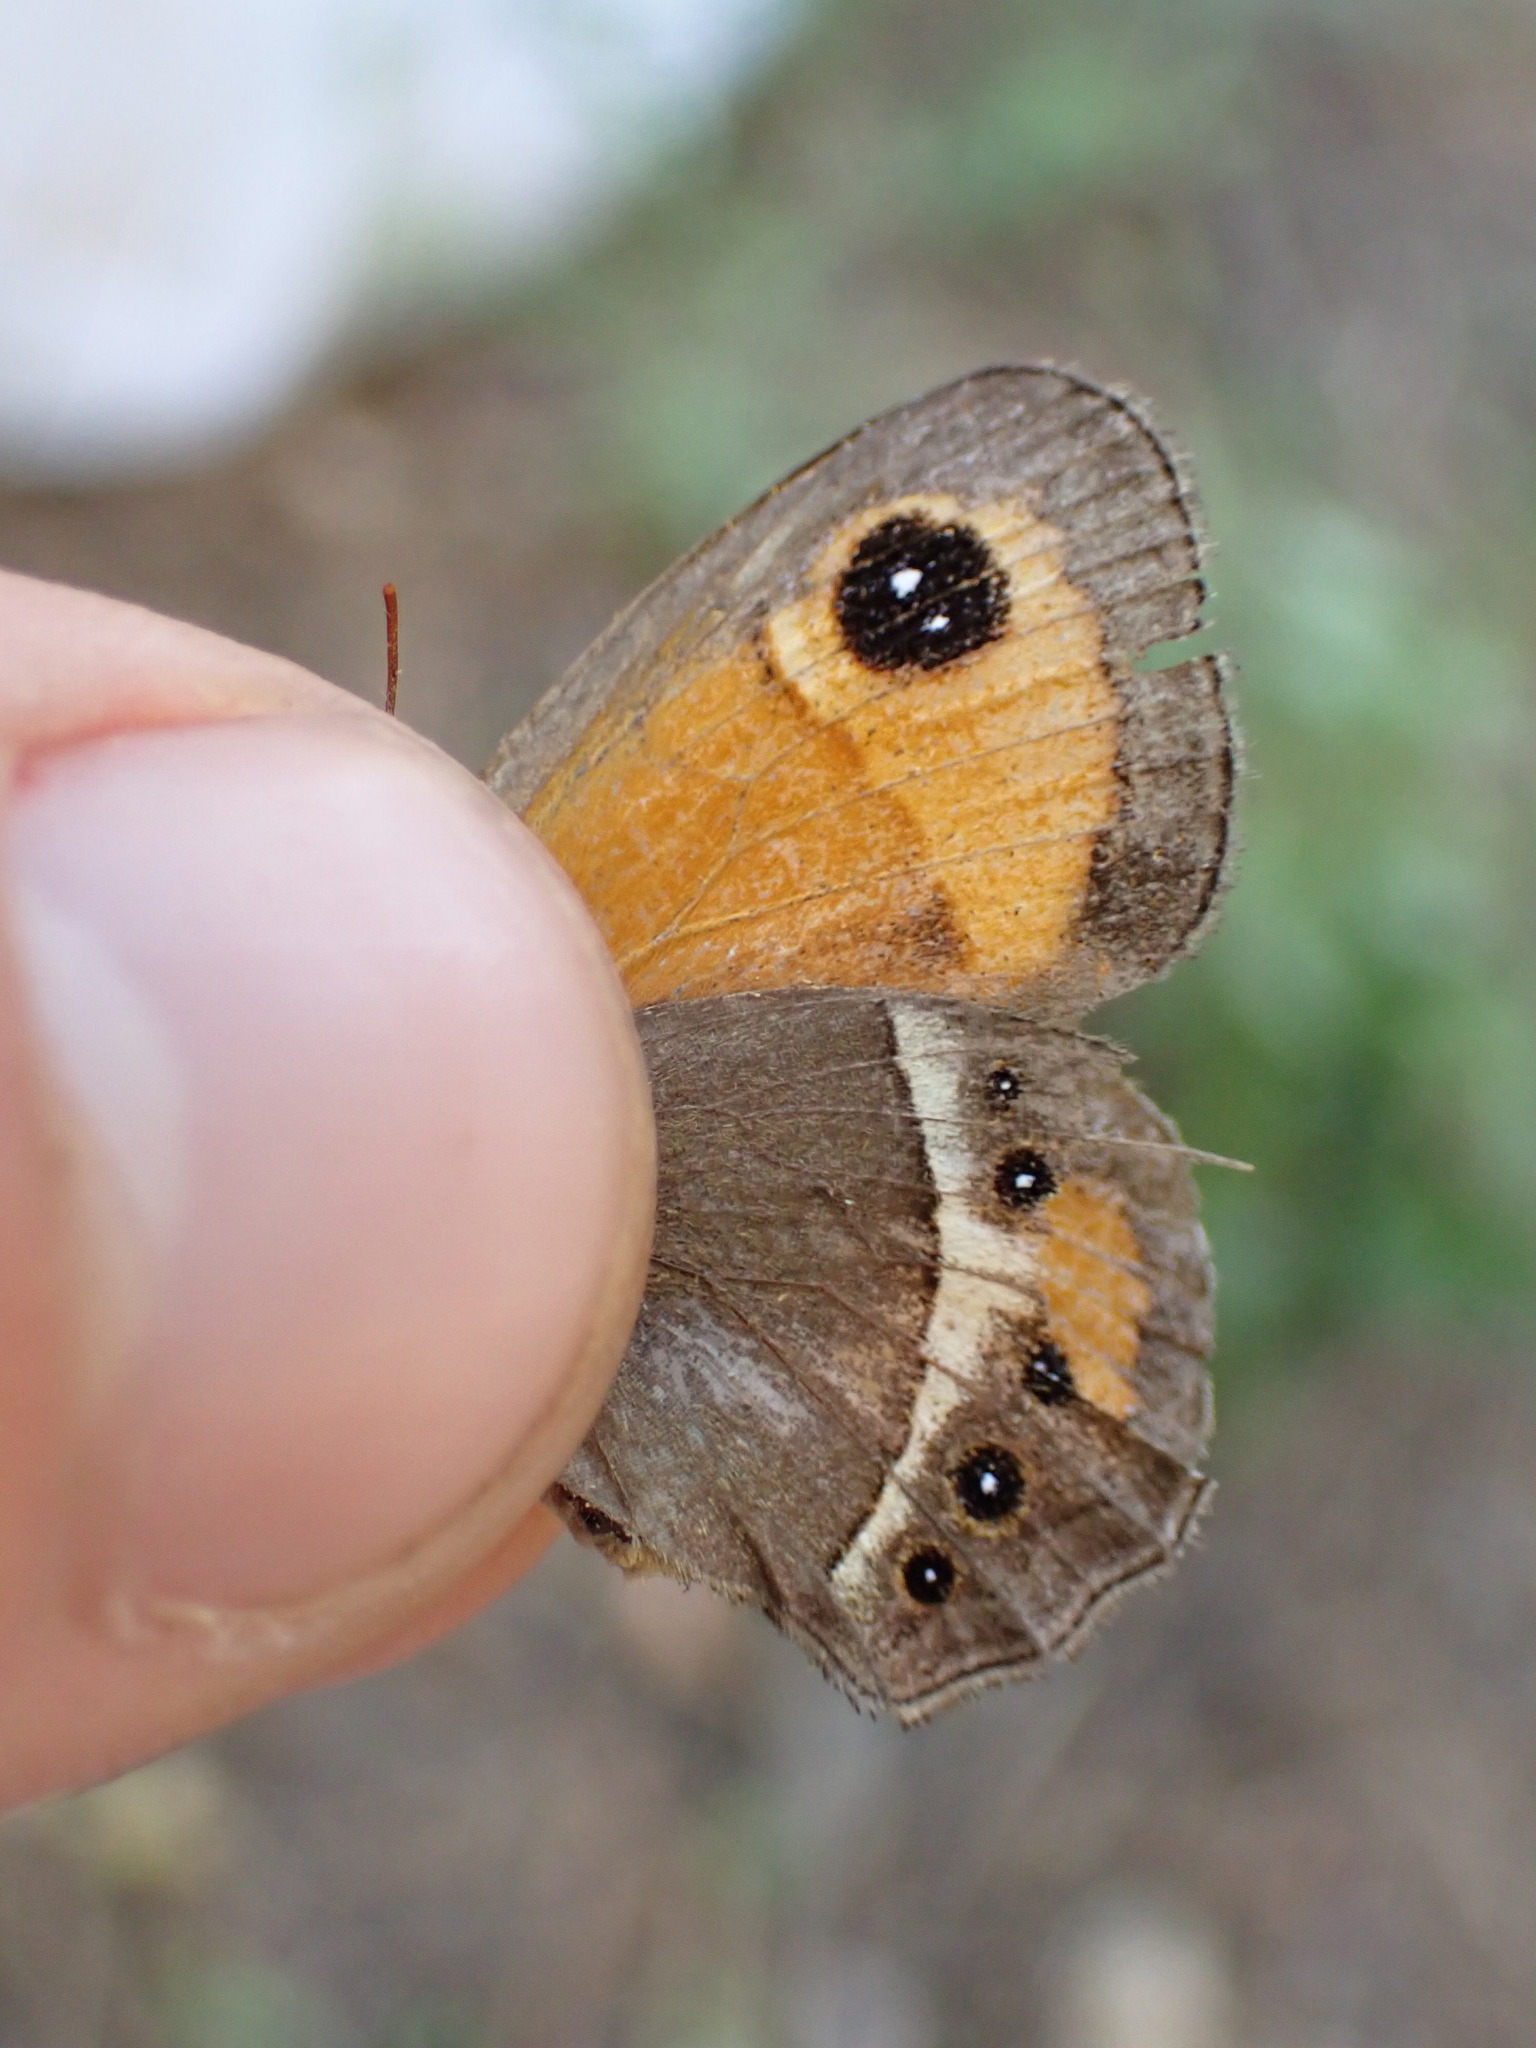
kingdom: Animalia
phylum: Arthropoda
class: Insecta
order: Lepidoptera
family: Nymphalidae
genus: Pyronia
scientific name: Pyronia bathseba
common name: Spanish gatekeeper
